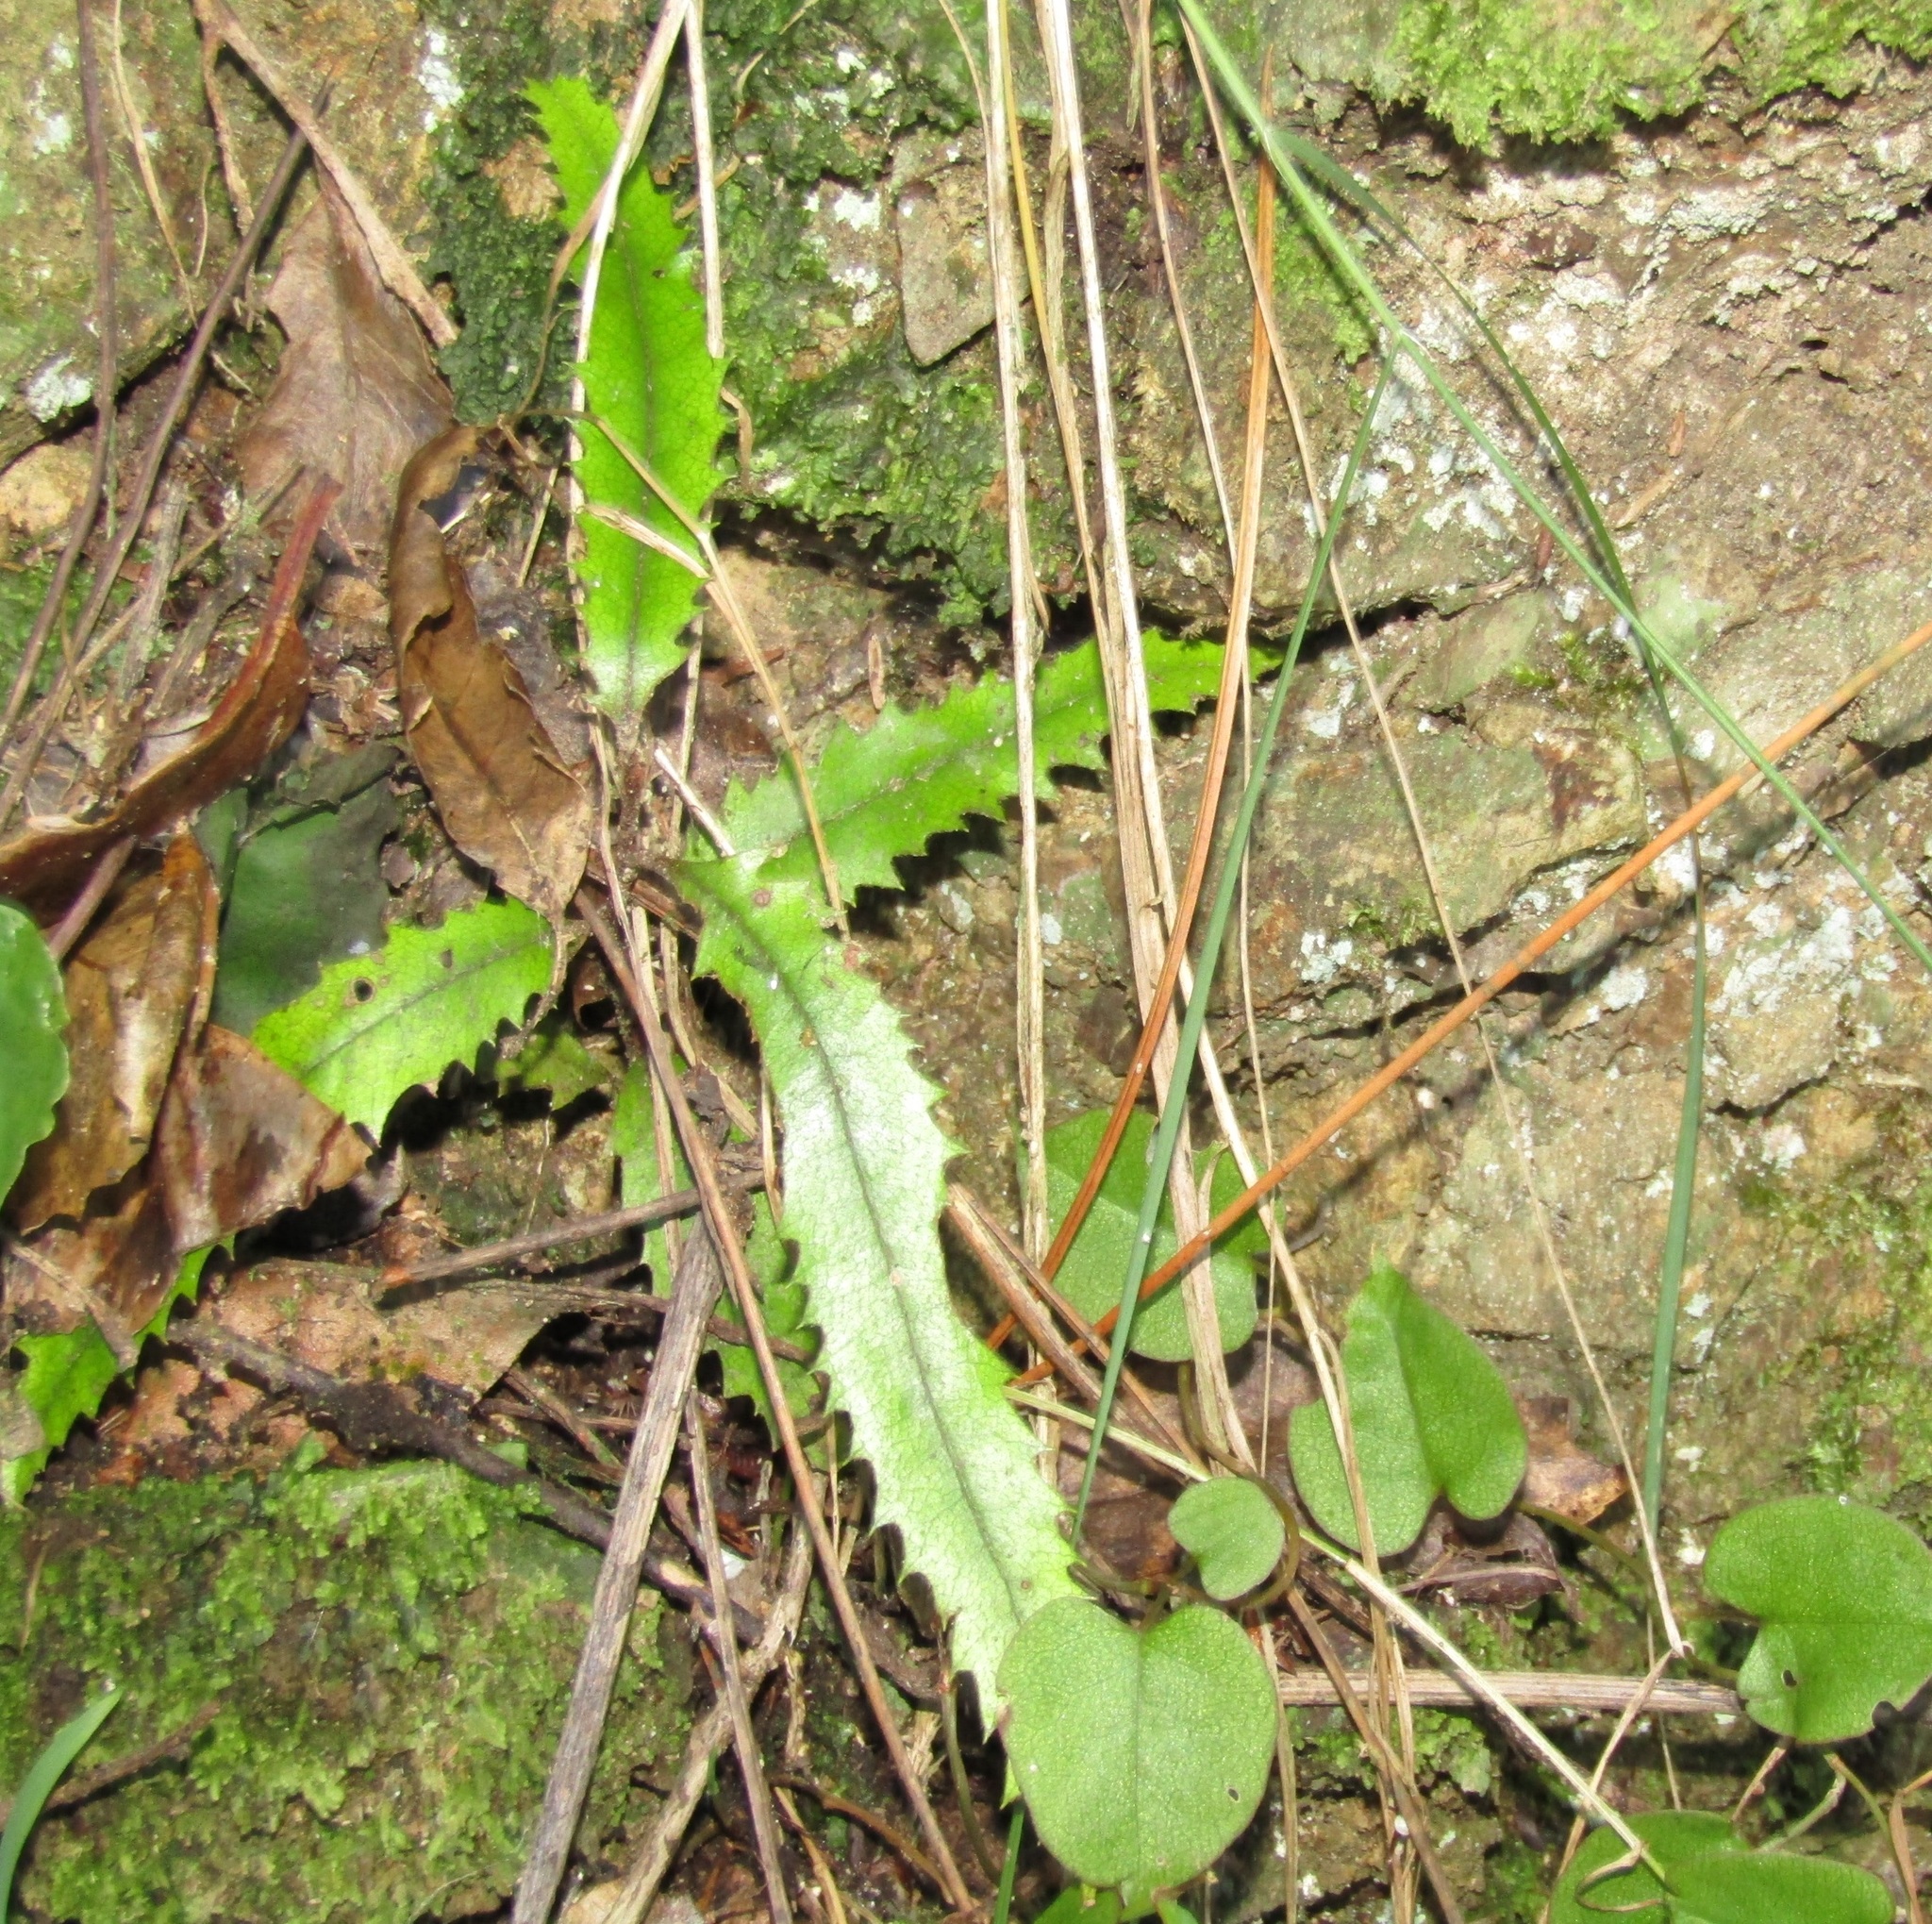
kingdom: Plantae
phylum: Tracheophyta
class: Magnoliopsida
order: Proteales
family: Proteaceae
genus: Knightia
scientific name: Knightia excelsa
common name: New zealand-honeysuckle
